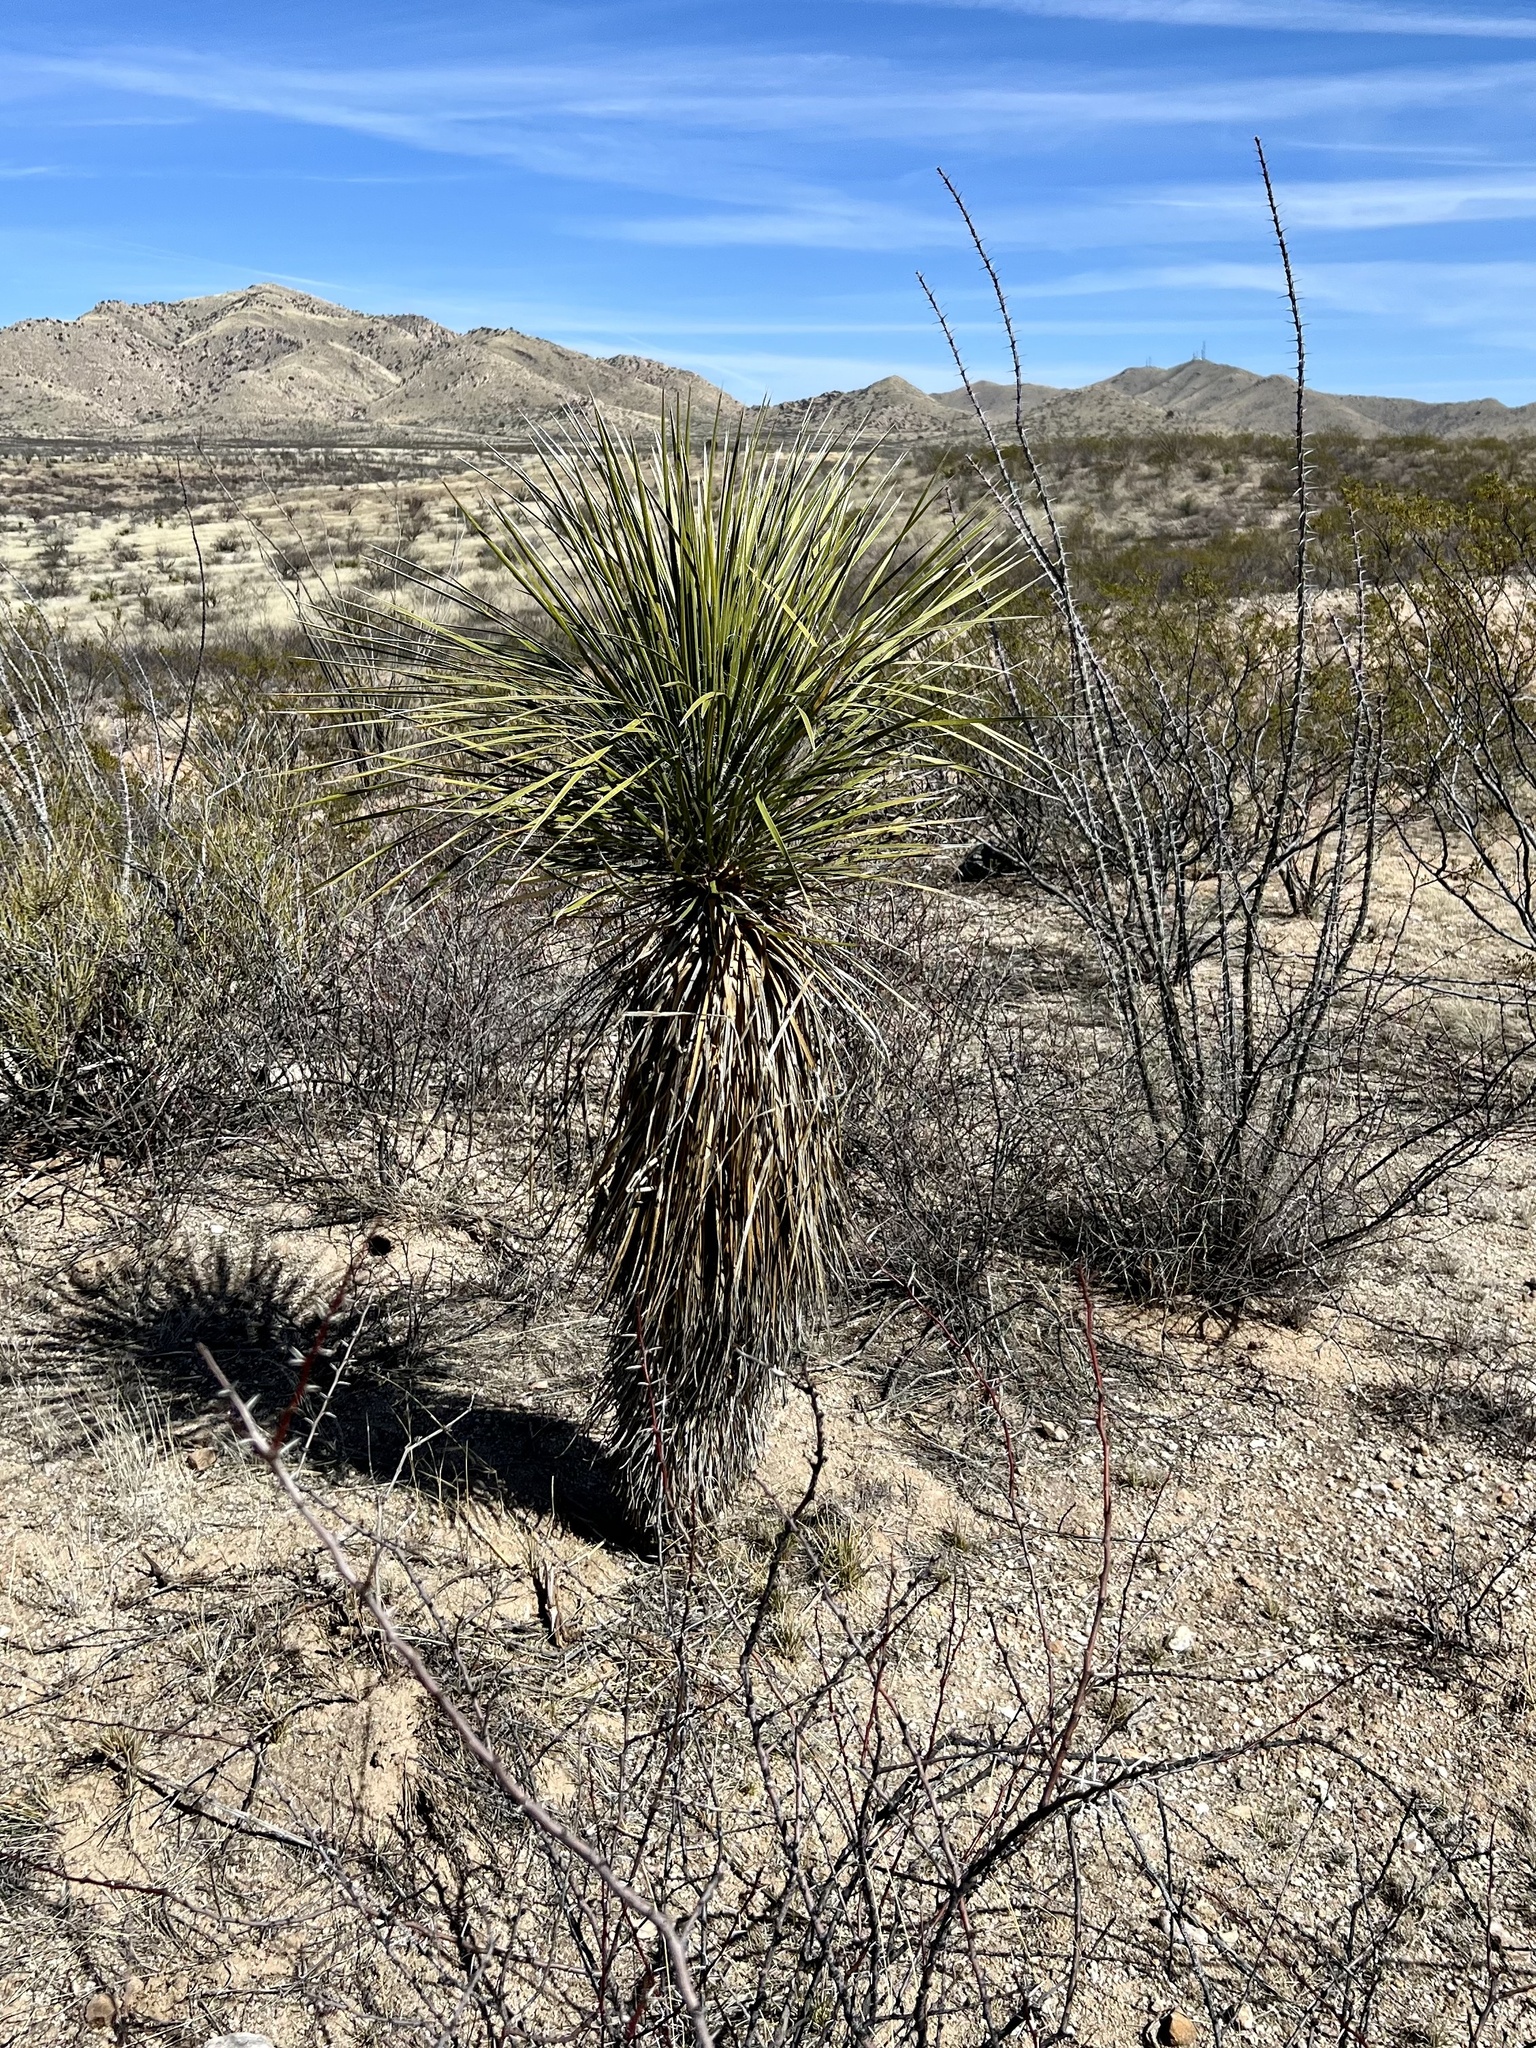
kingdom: Plantae
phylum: Tracheophyta
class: Liliopsida
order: Asparagales
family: Asparagaceae
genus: Yucca
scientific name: Yucca elata
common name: Palmella
